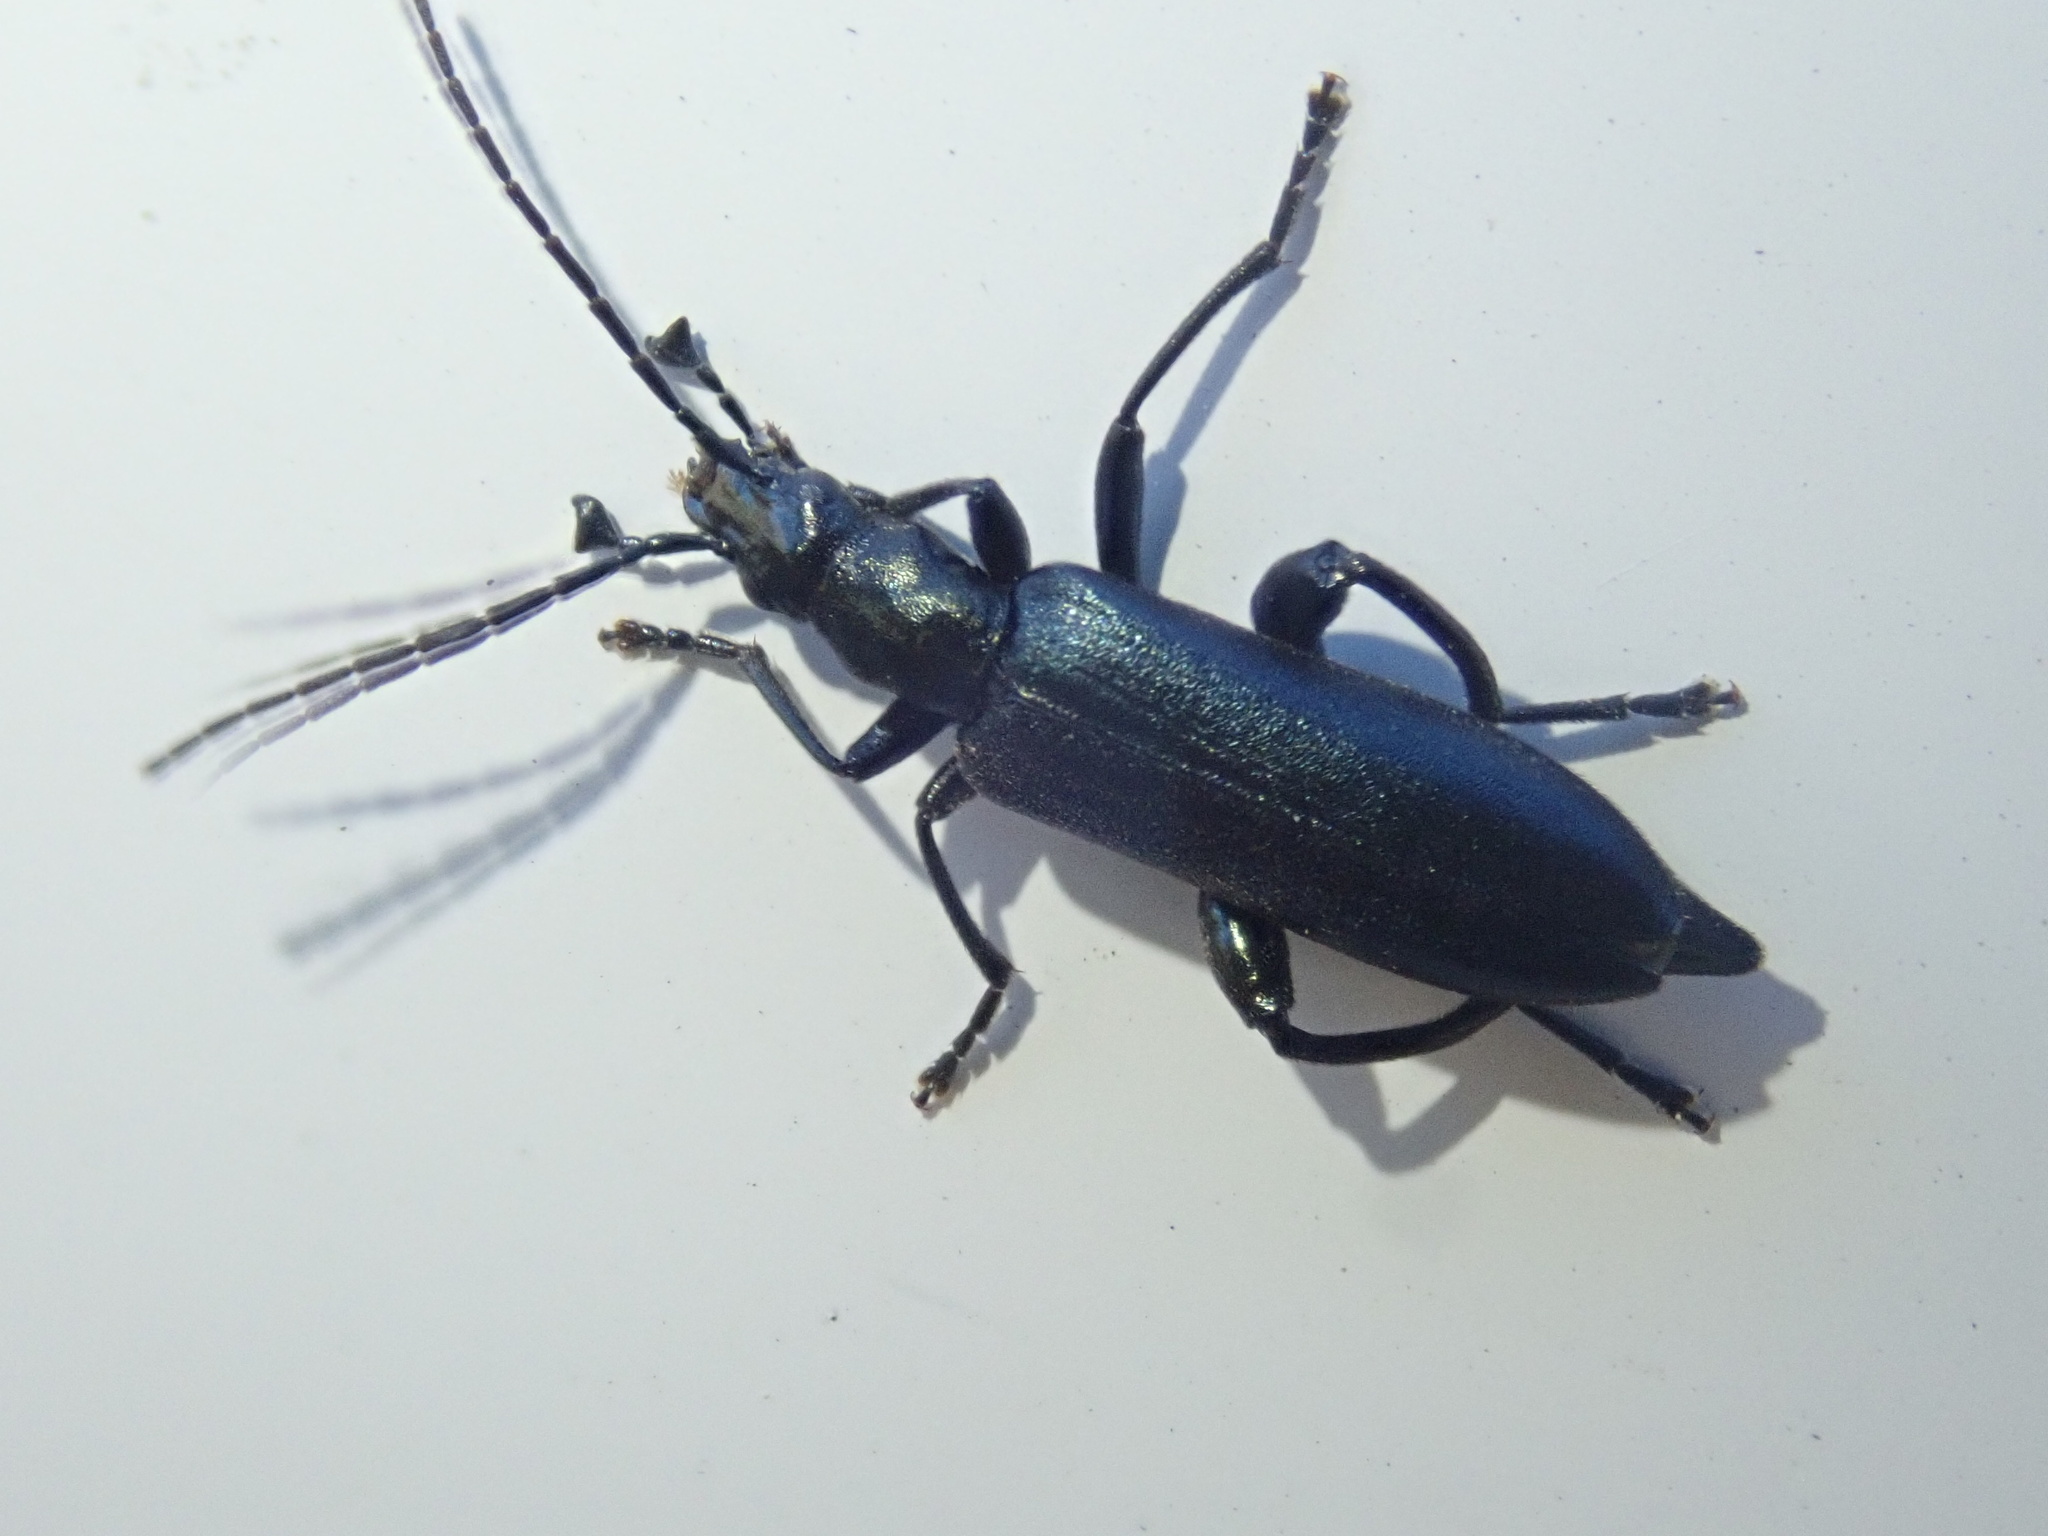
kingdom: Animalia
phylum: Arthropoda
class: Insecta
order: Coleoptera
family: Oedemeridae
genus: Selenopalpus
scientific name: Selenopalpus cyaneus
